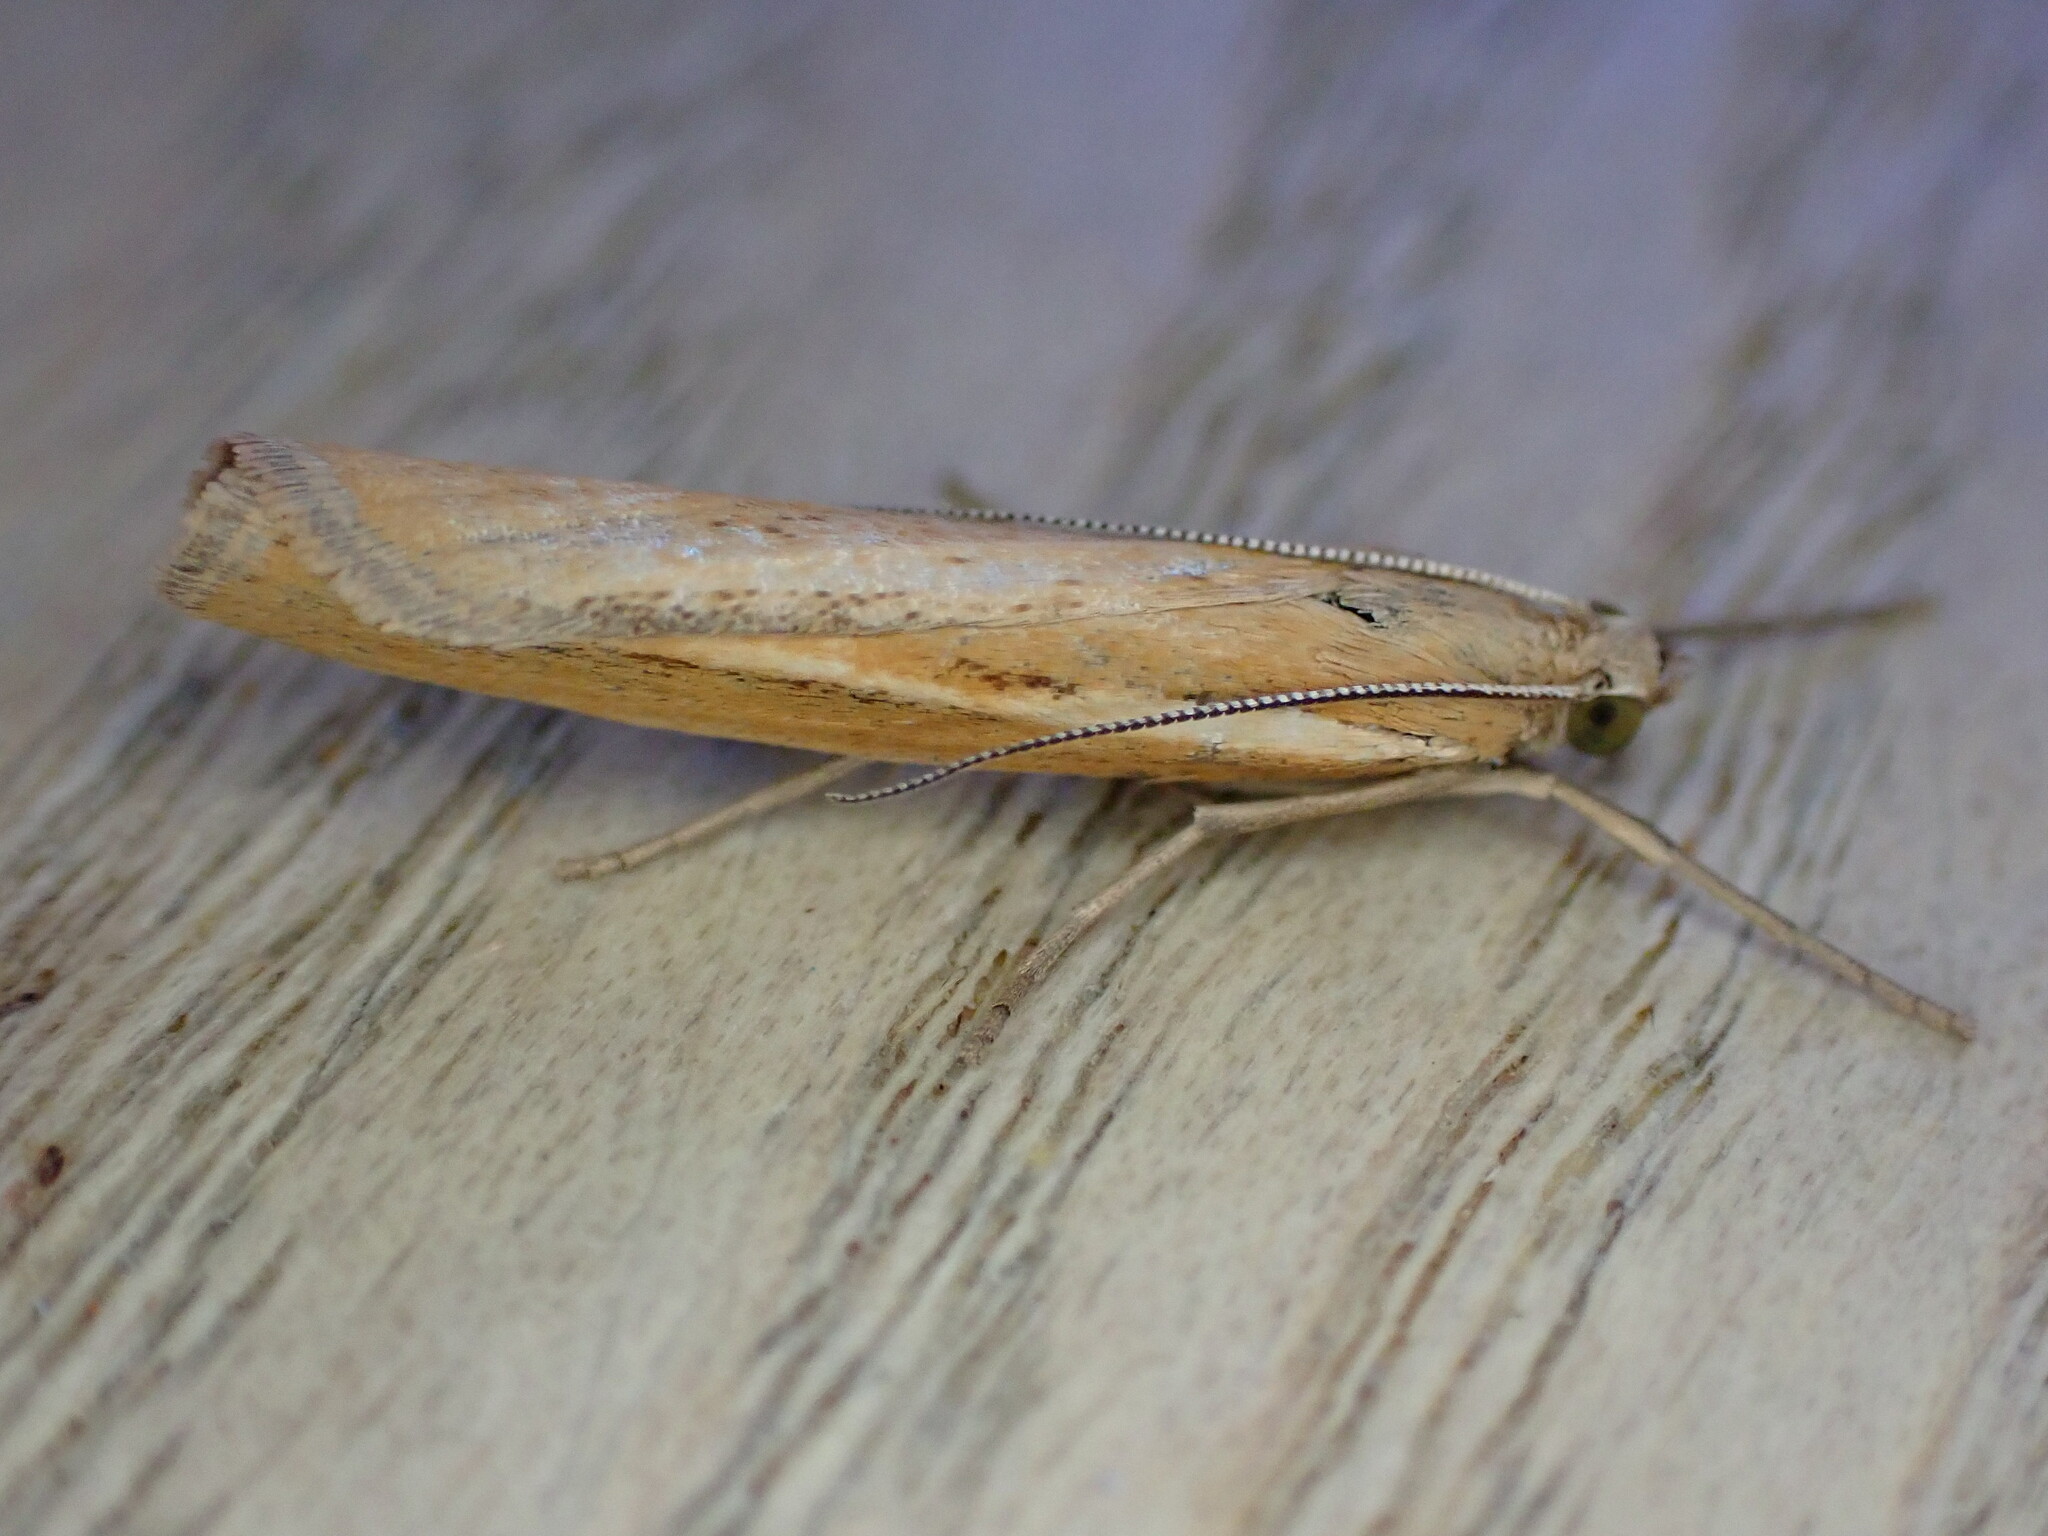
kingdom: Animalia
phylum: Arthropoda
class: Insecta
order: Lepidoptera
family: Crambidae
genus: Agriphila
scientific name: Agriphila tristellus
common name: Common grass-veneer
